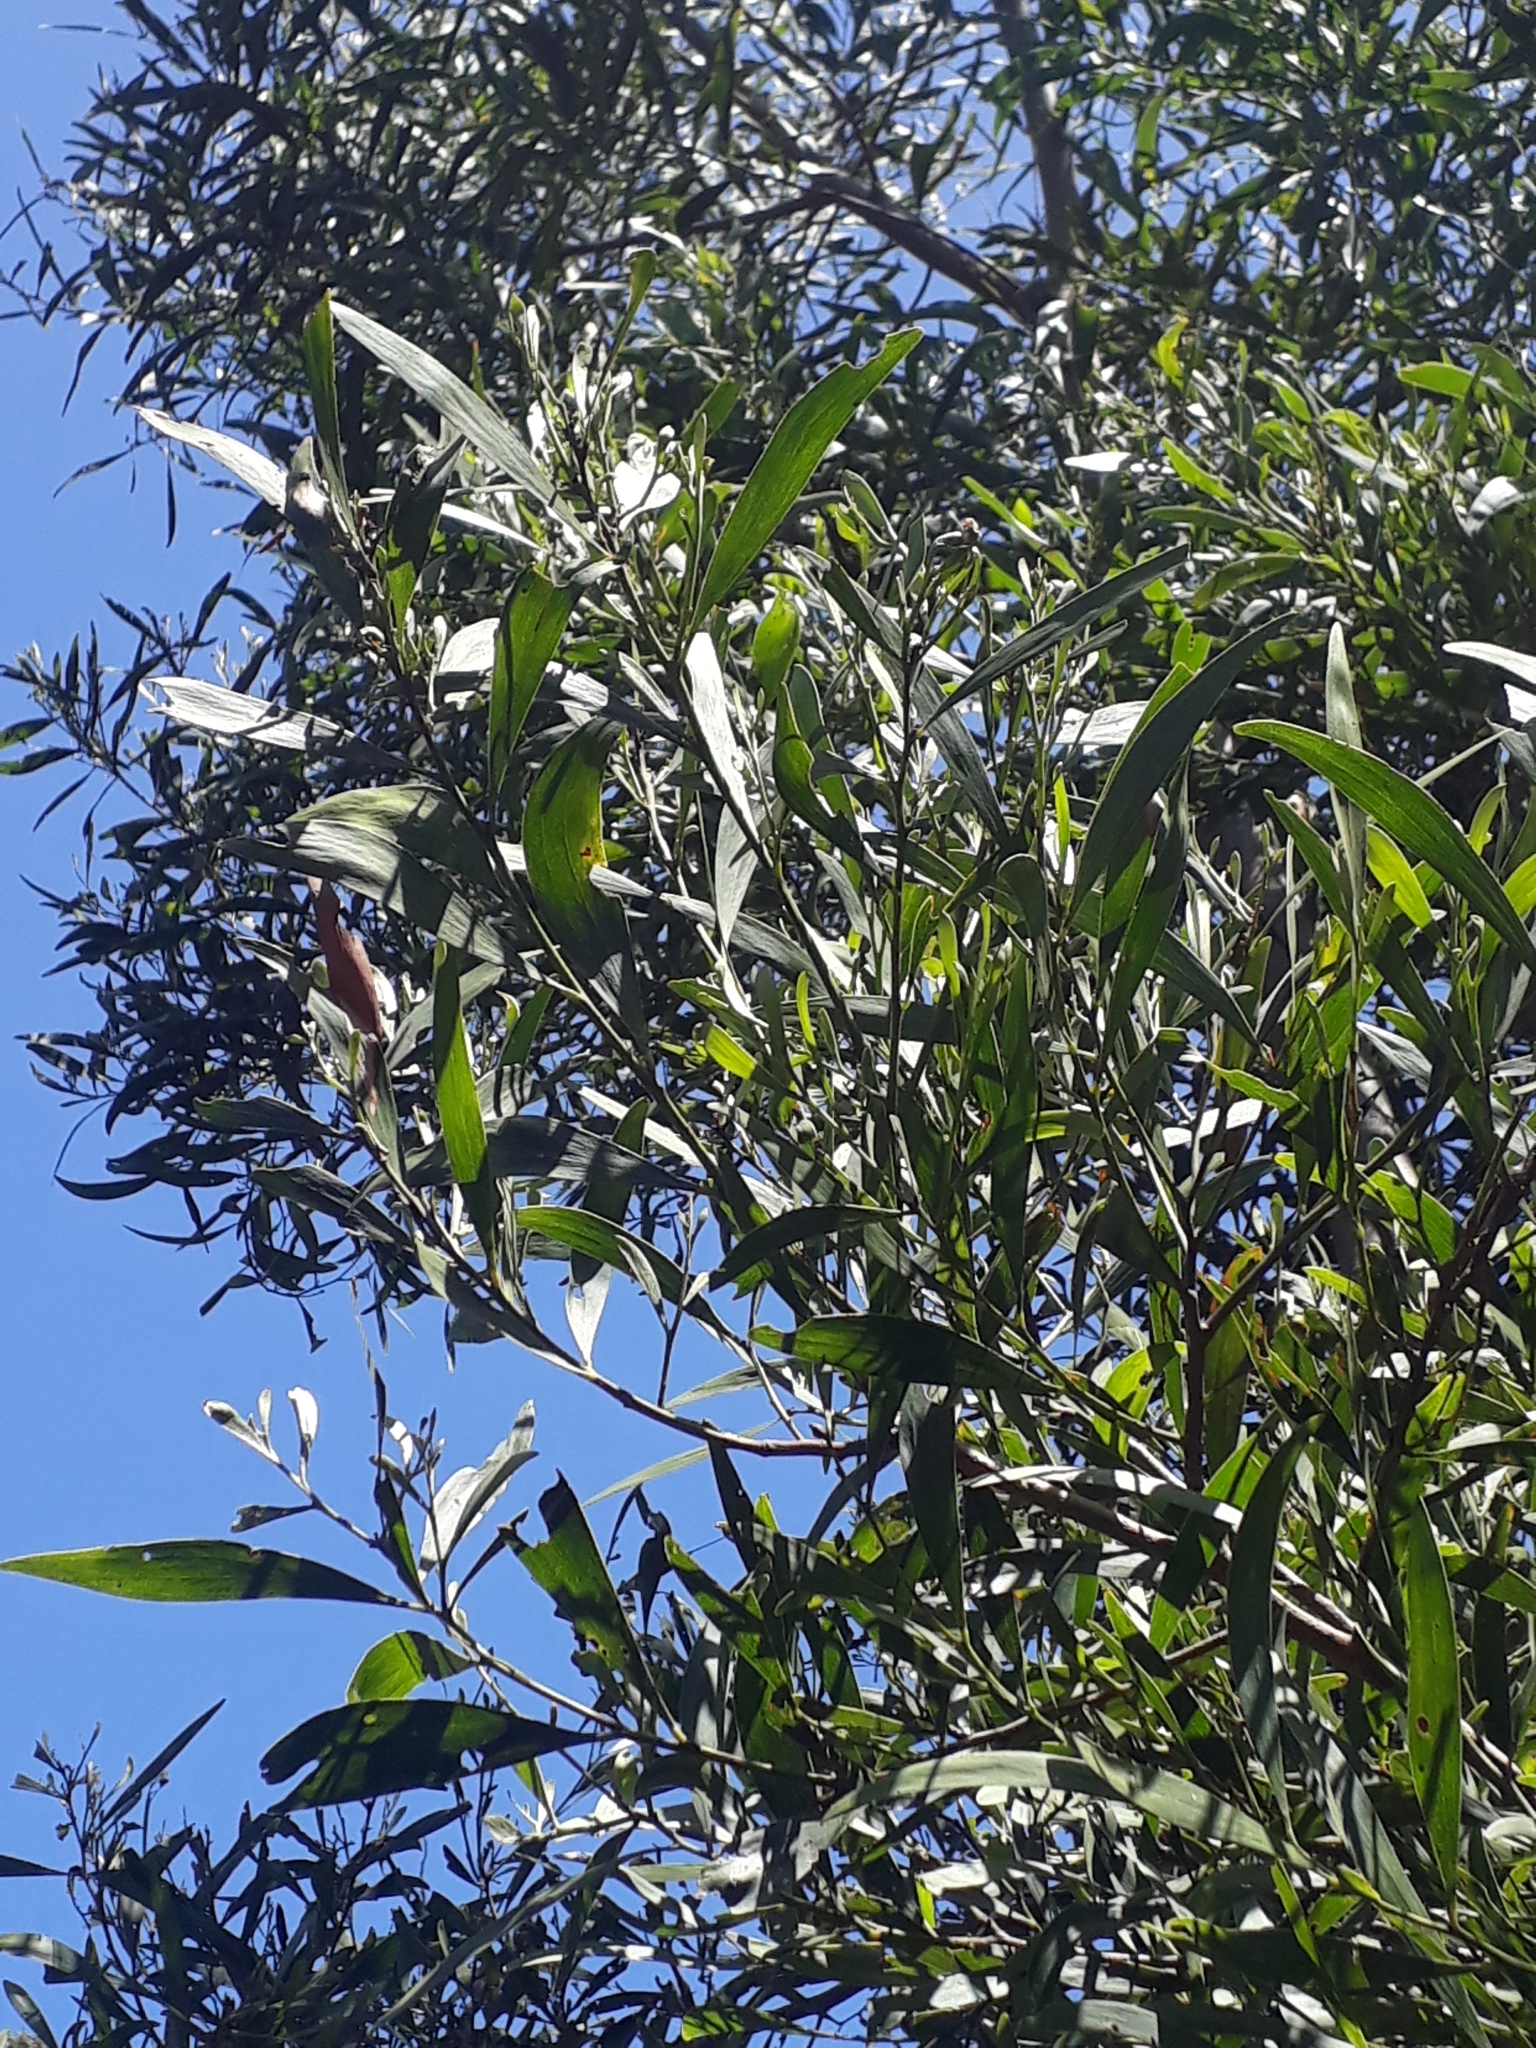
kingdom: Plantae
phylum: Tracheophyta
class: Magnoliopsida
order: Fabales
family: Fabaceae
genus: Acacia
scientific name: Acacia melanoxylon
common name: Blackwood
